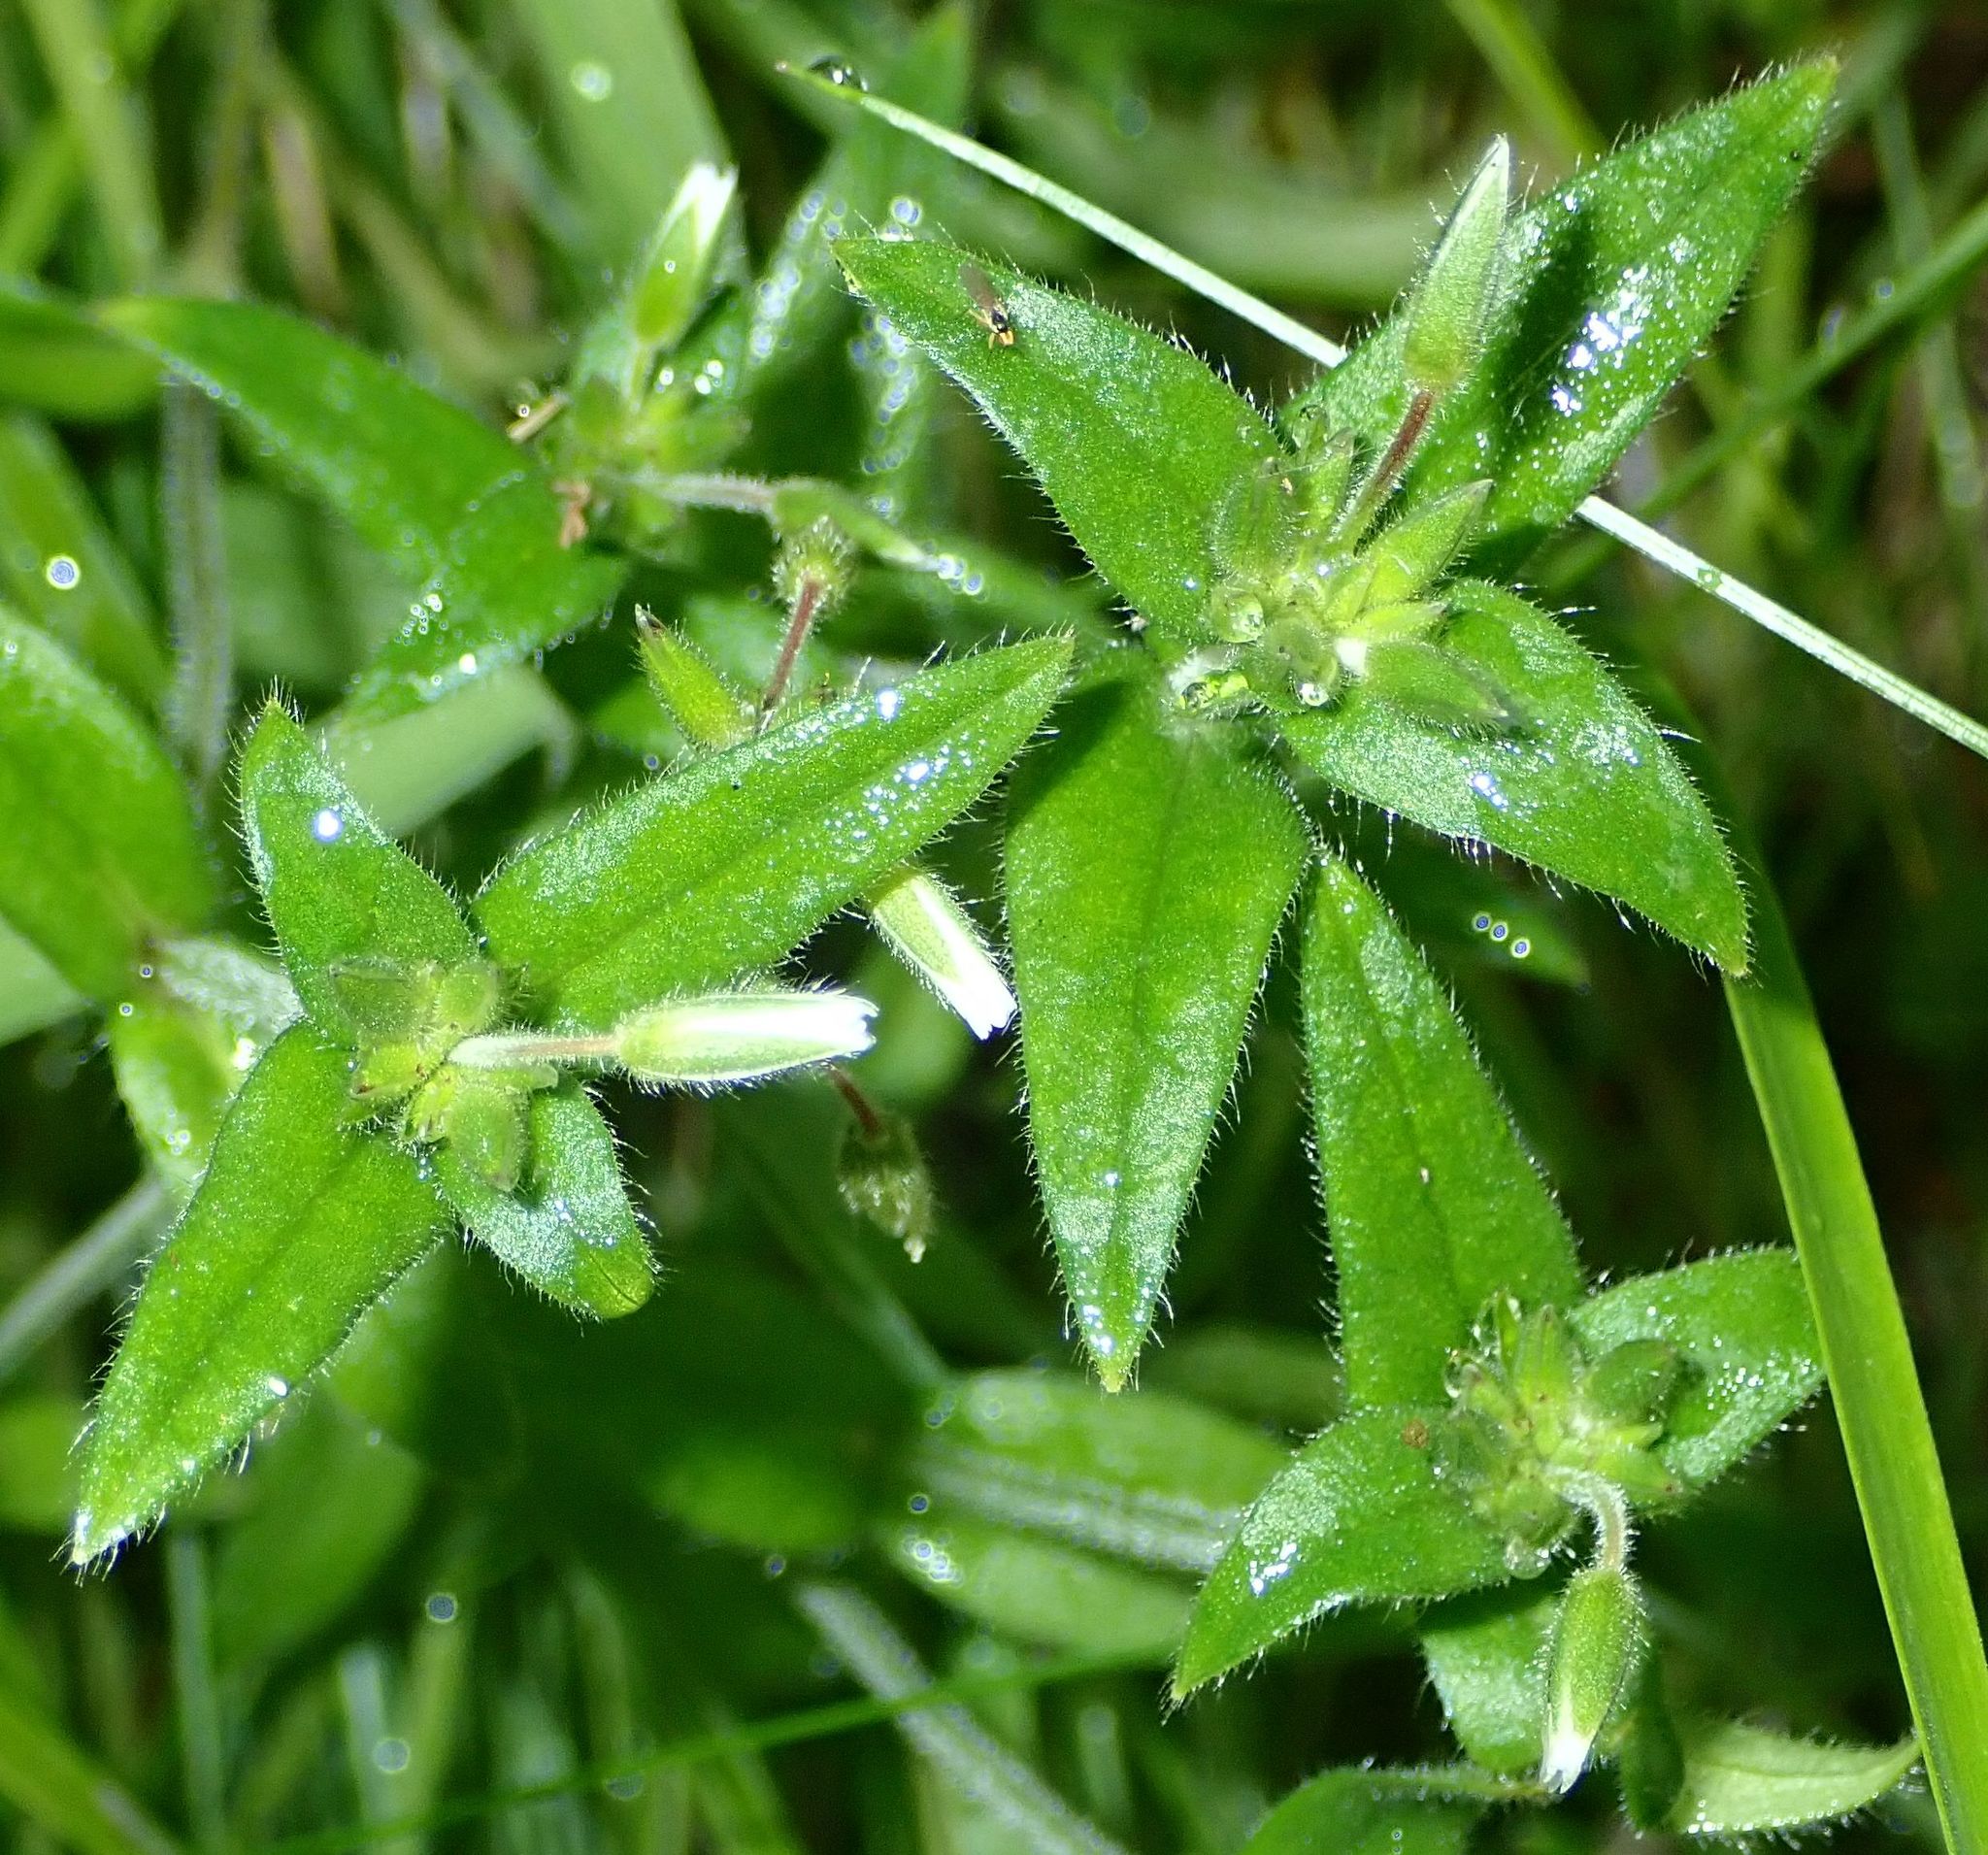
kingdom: Plantae
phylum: Tracheophyta
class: Magnoliopsida
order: Caryophyllales
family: Caryophyllaceae
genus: Cerastium
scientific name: Cerastium fontanum
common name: Common mouse-ear
